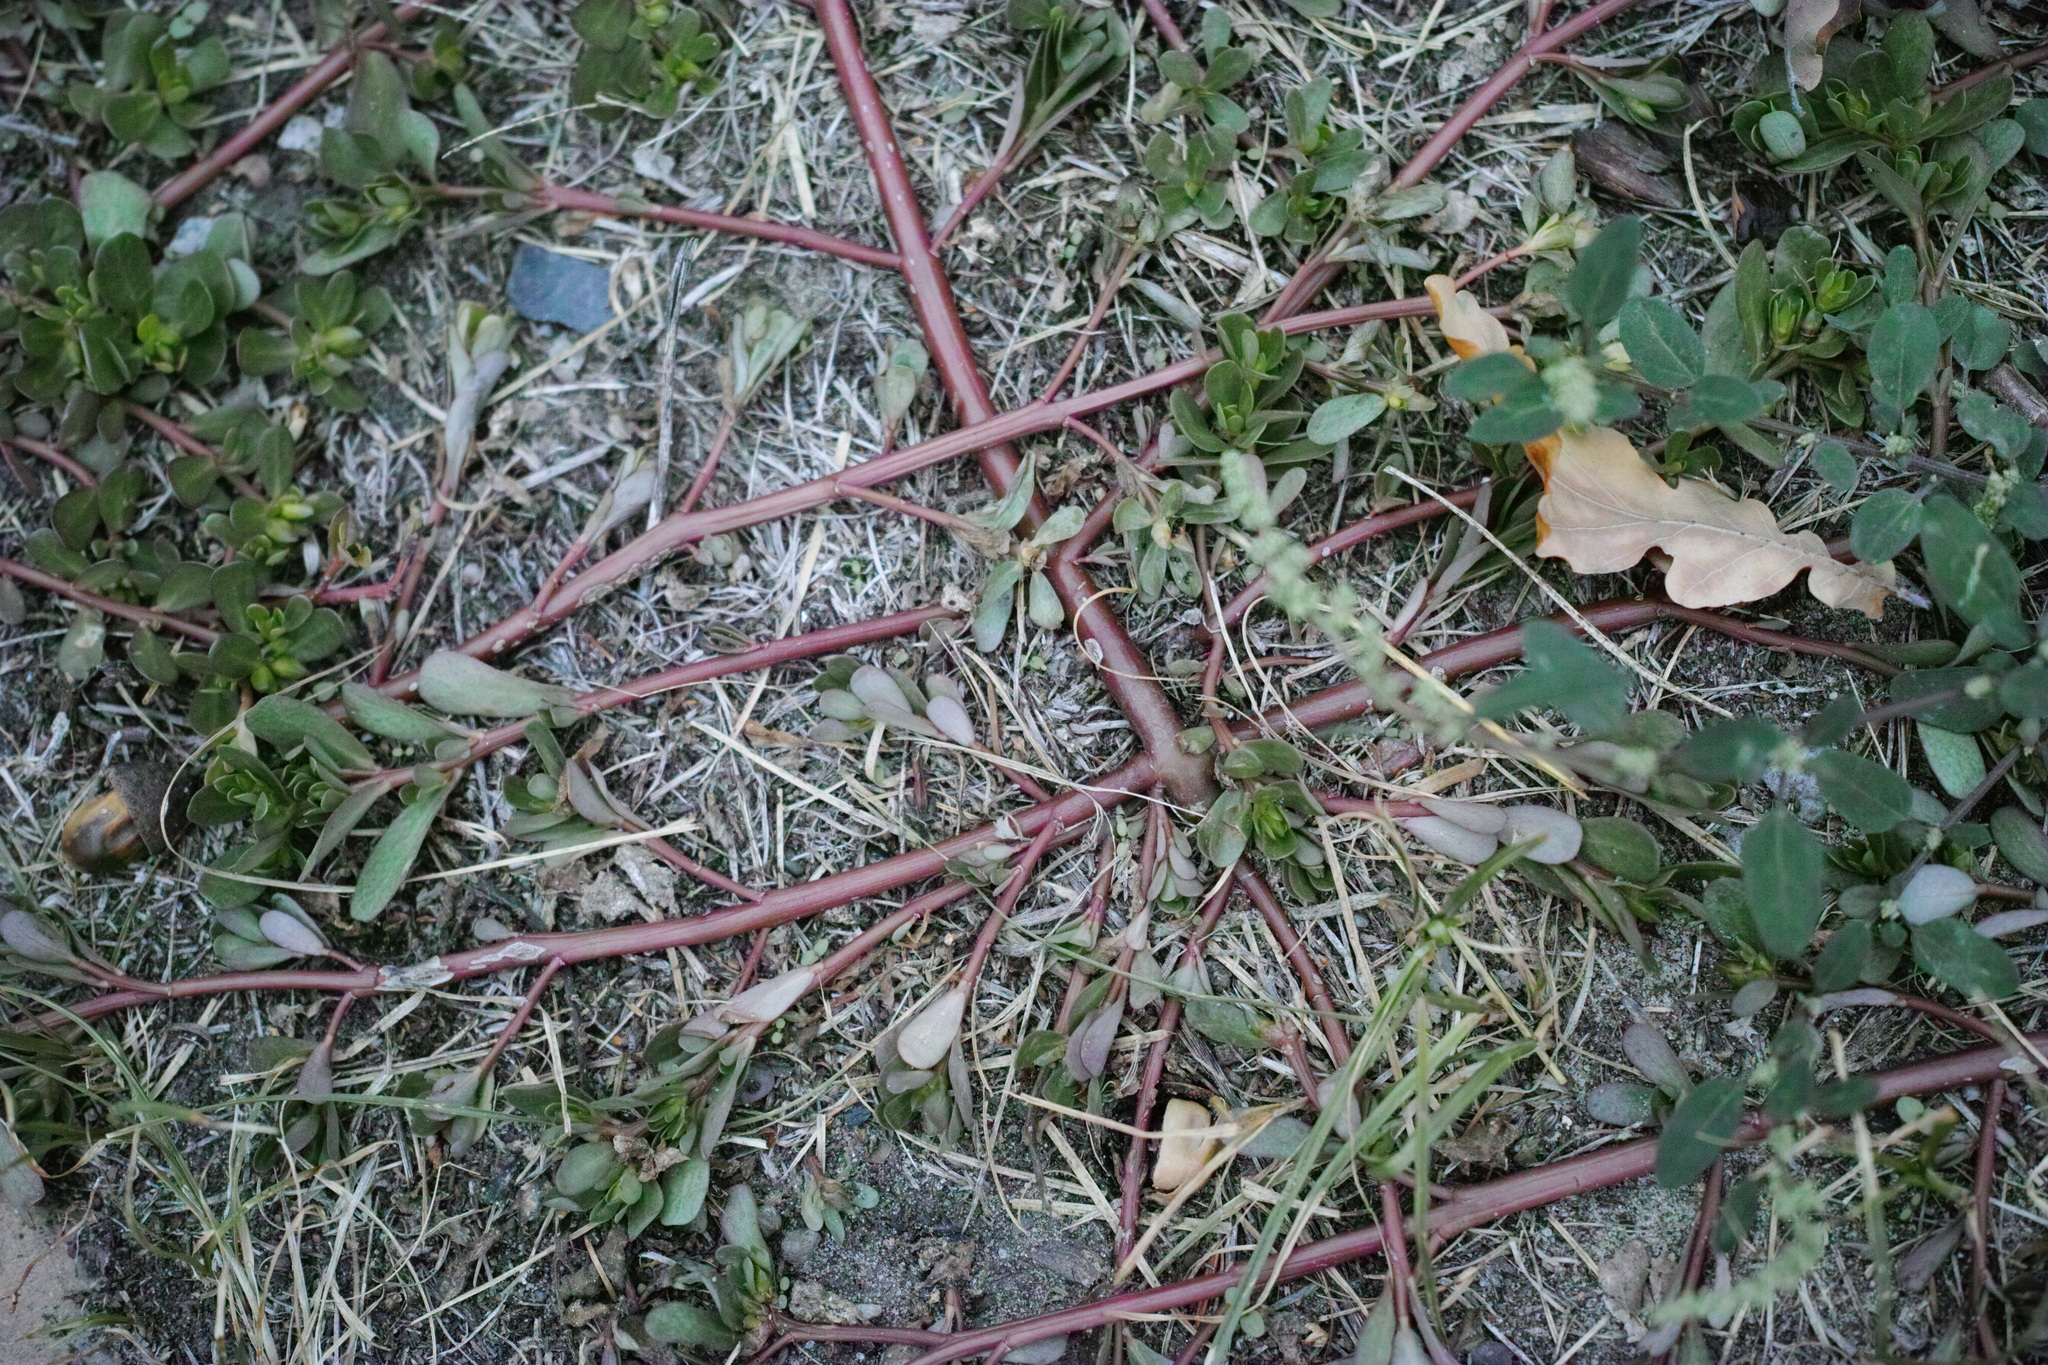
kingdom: Plantae
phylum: Tracheophyta
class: Magnoliopsida
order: Caryophyllales
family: Portulacaceae
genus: Portulaca
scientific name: Portulaca oleracea
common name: Common purslane
